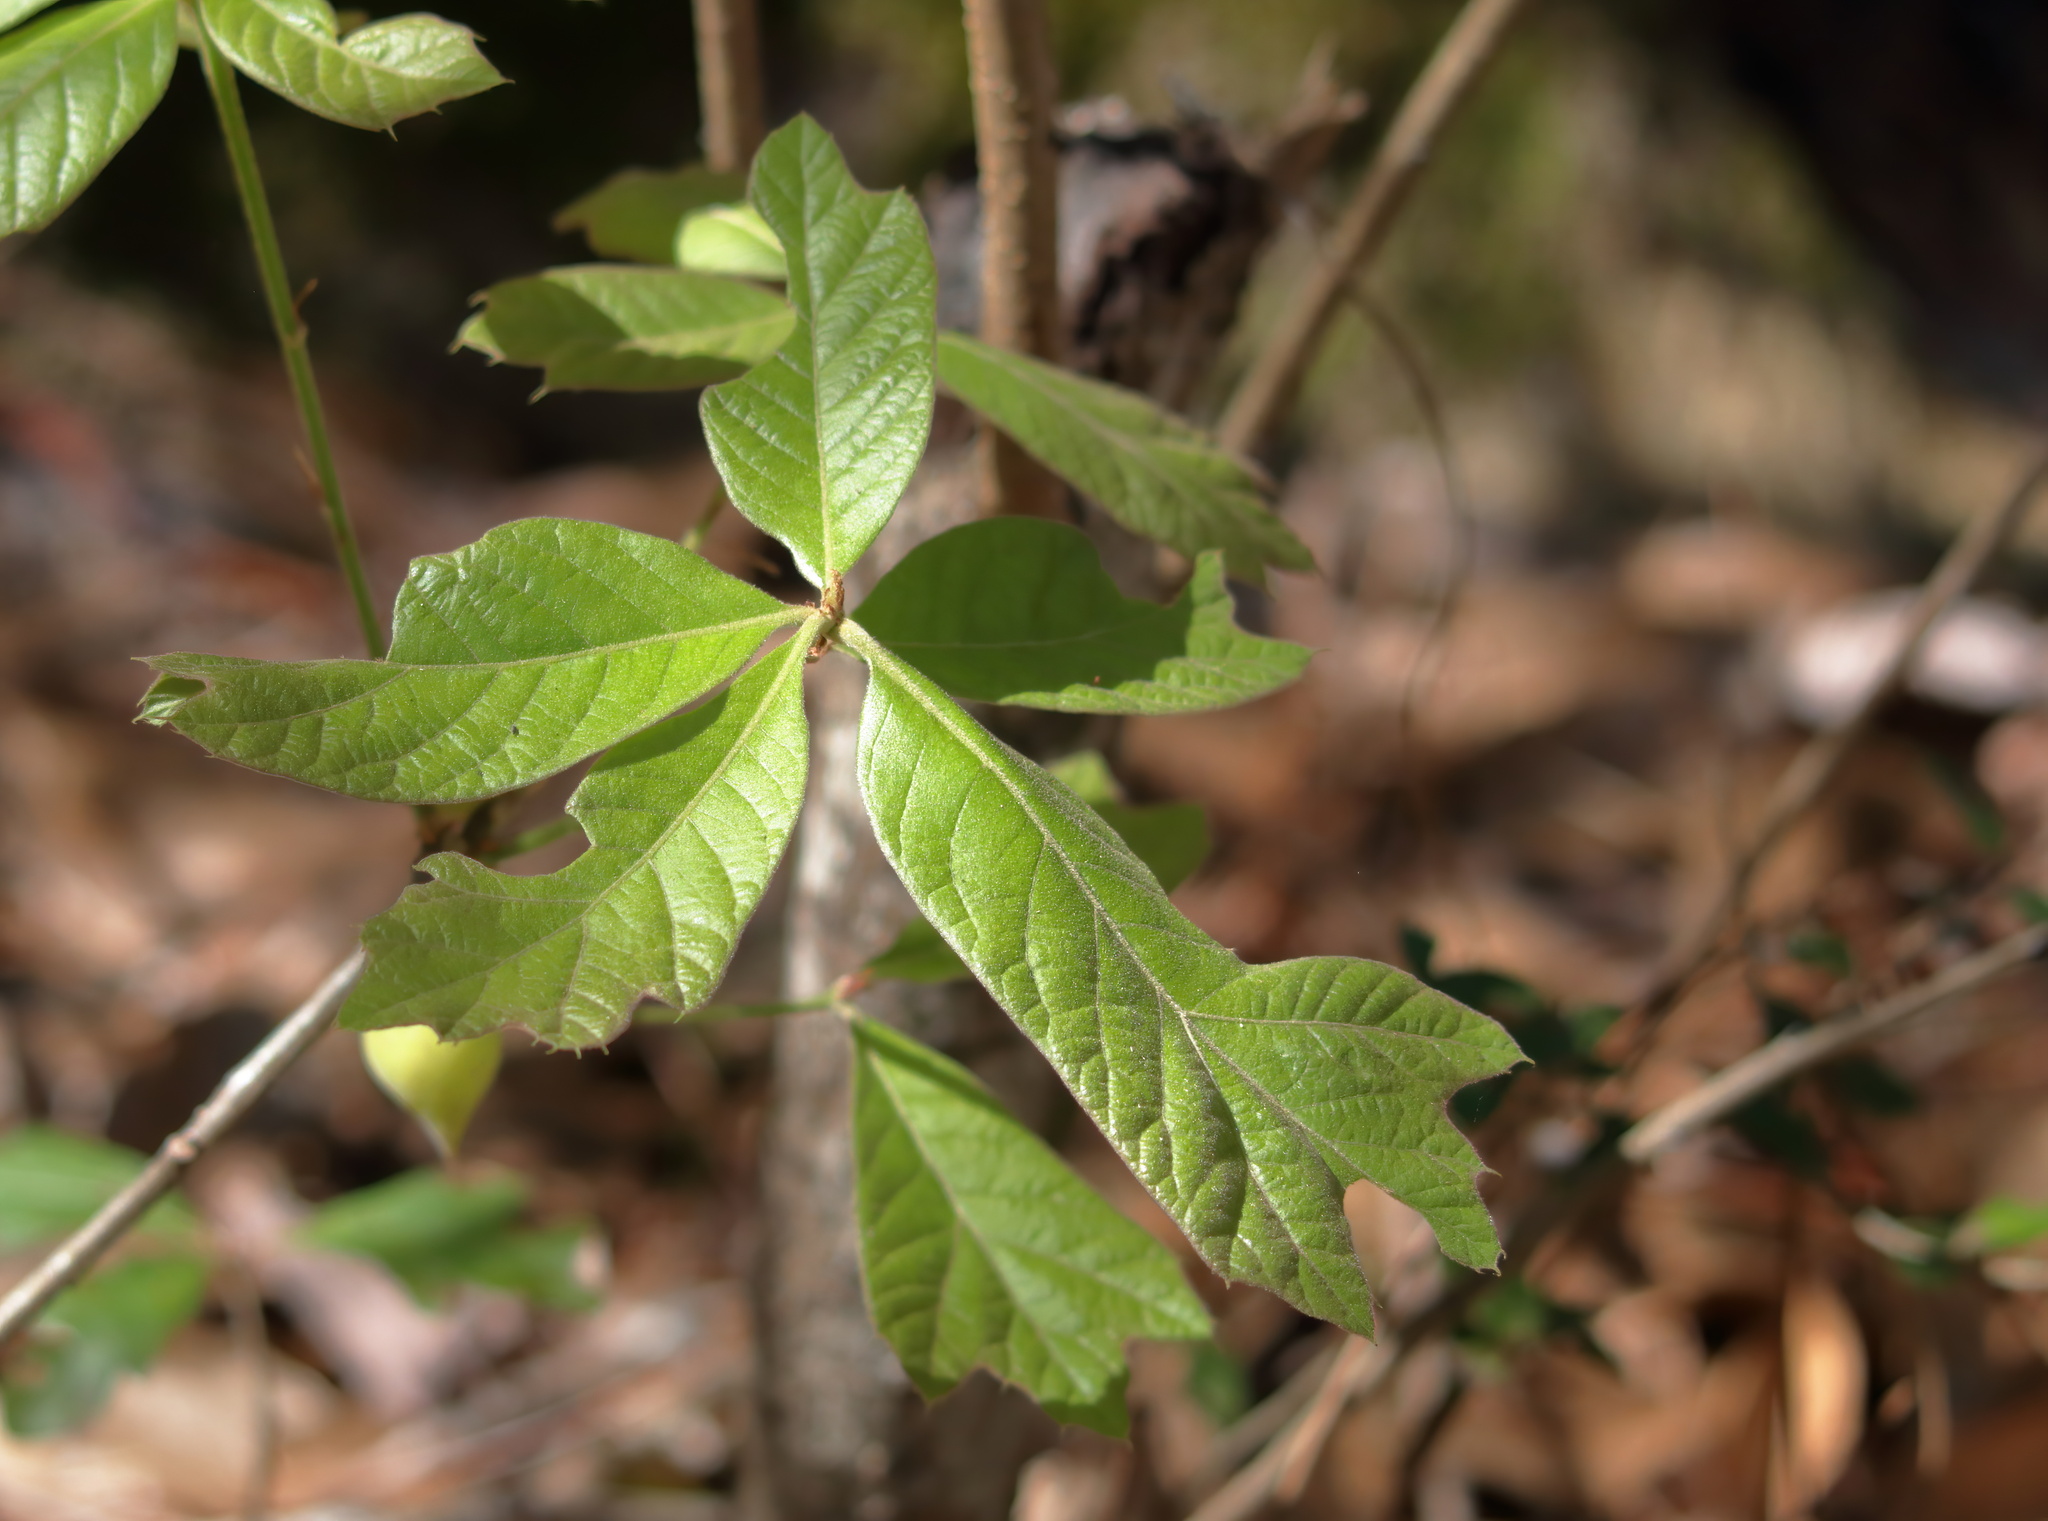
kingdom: Animalia
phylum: Arthropoda
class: Insecta
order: Hymenoptera
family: Cynipidae
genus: Amphibolips
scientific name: Amphibolips
